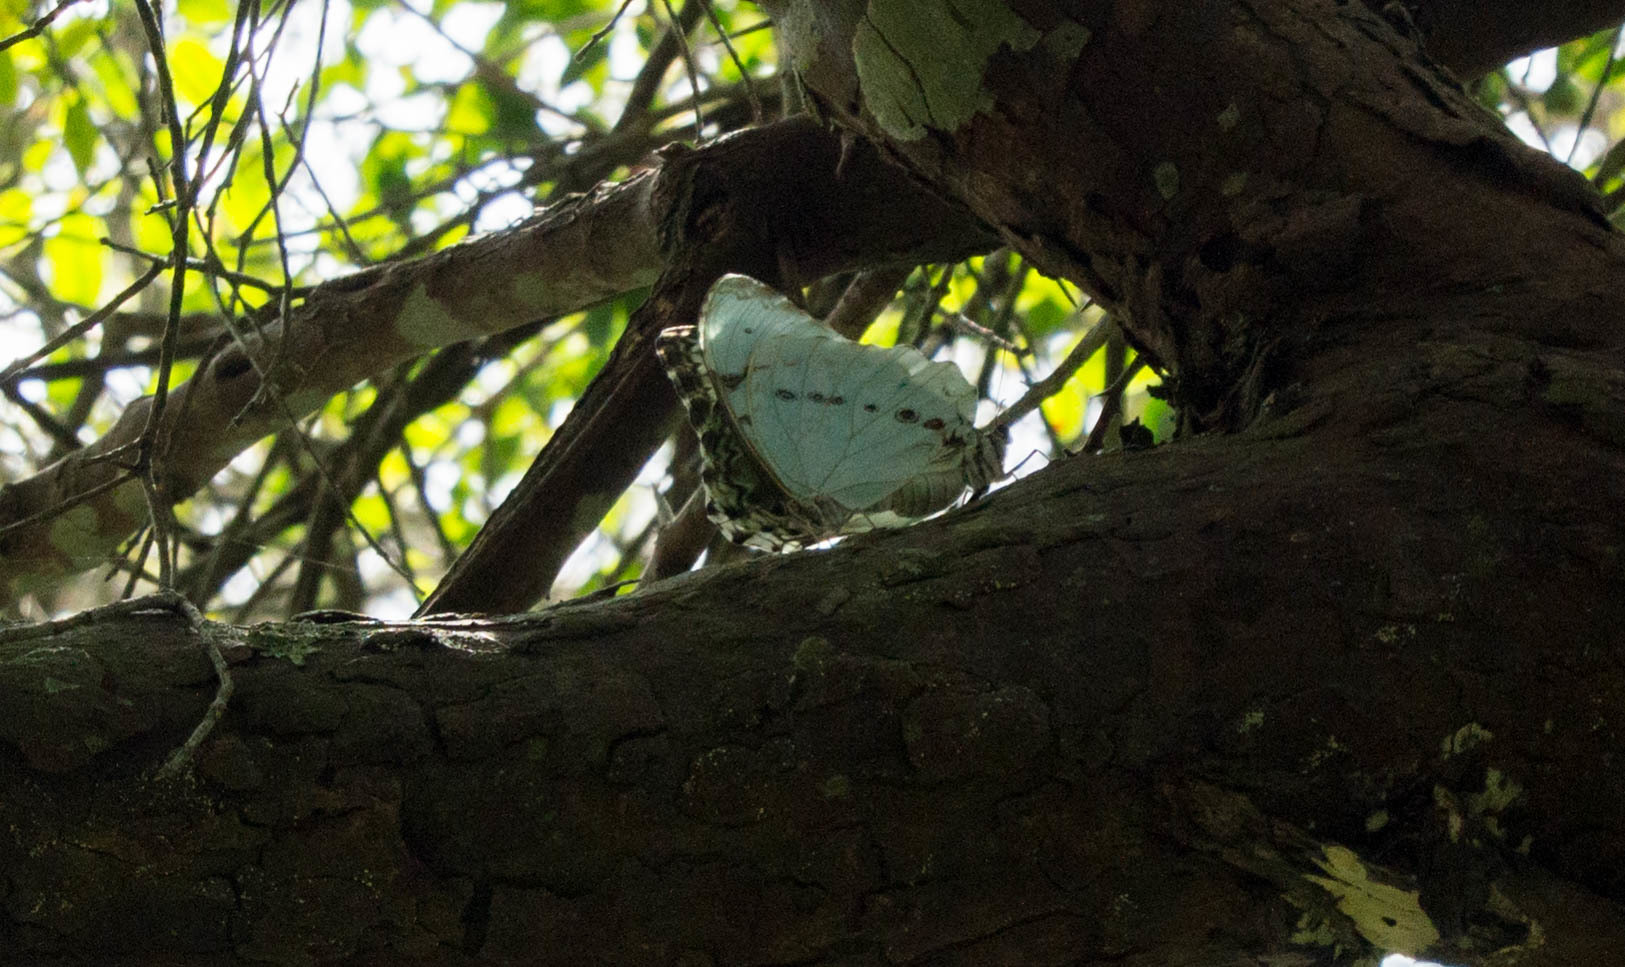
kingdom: Animalia
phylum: Arthropoda
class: Insecta
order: Lepidoptera
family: Nymphalidae
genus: Morpho
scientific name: Morpho epistrophus
